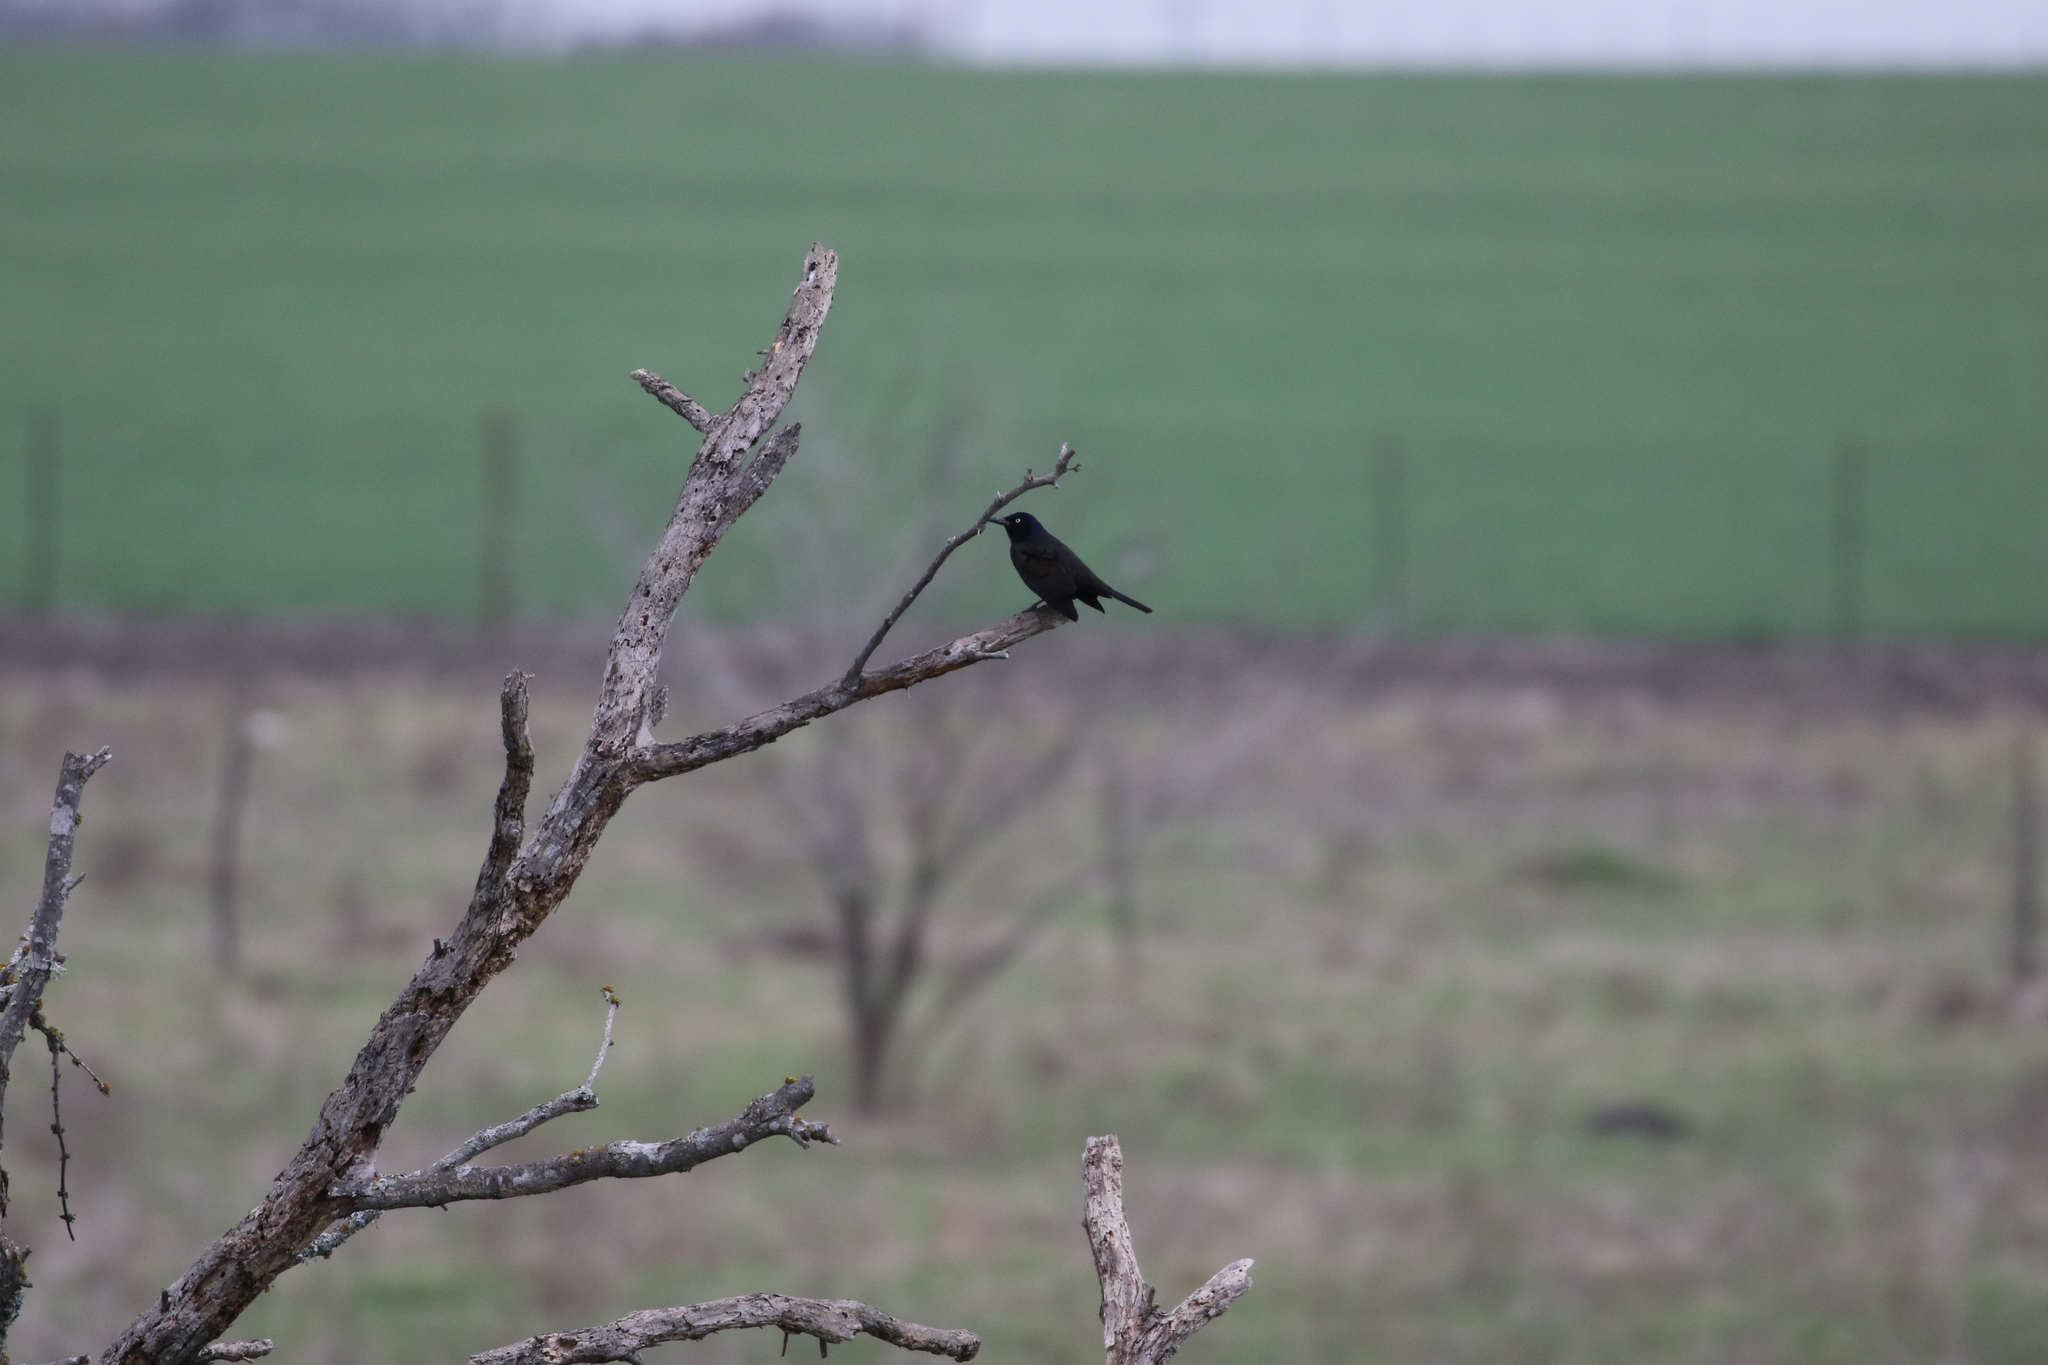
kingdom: Animalia
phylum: Chordata
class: Aves
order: Passeriformes
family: Icteridae
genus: Euphagus
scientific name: Euphagus cyanocephalus
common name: Brewer's blackbird
